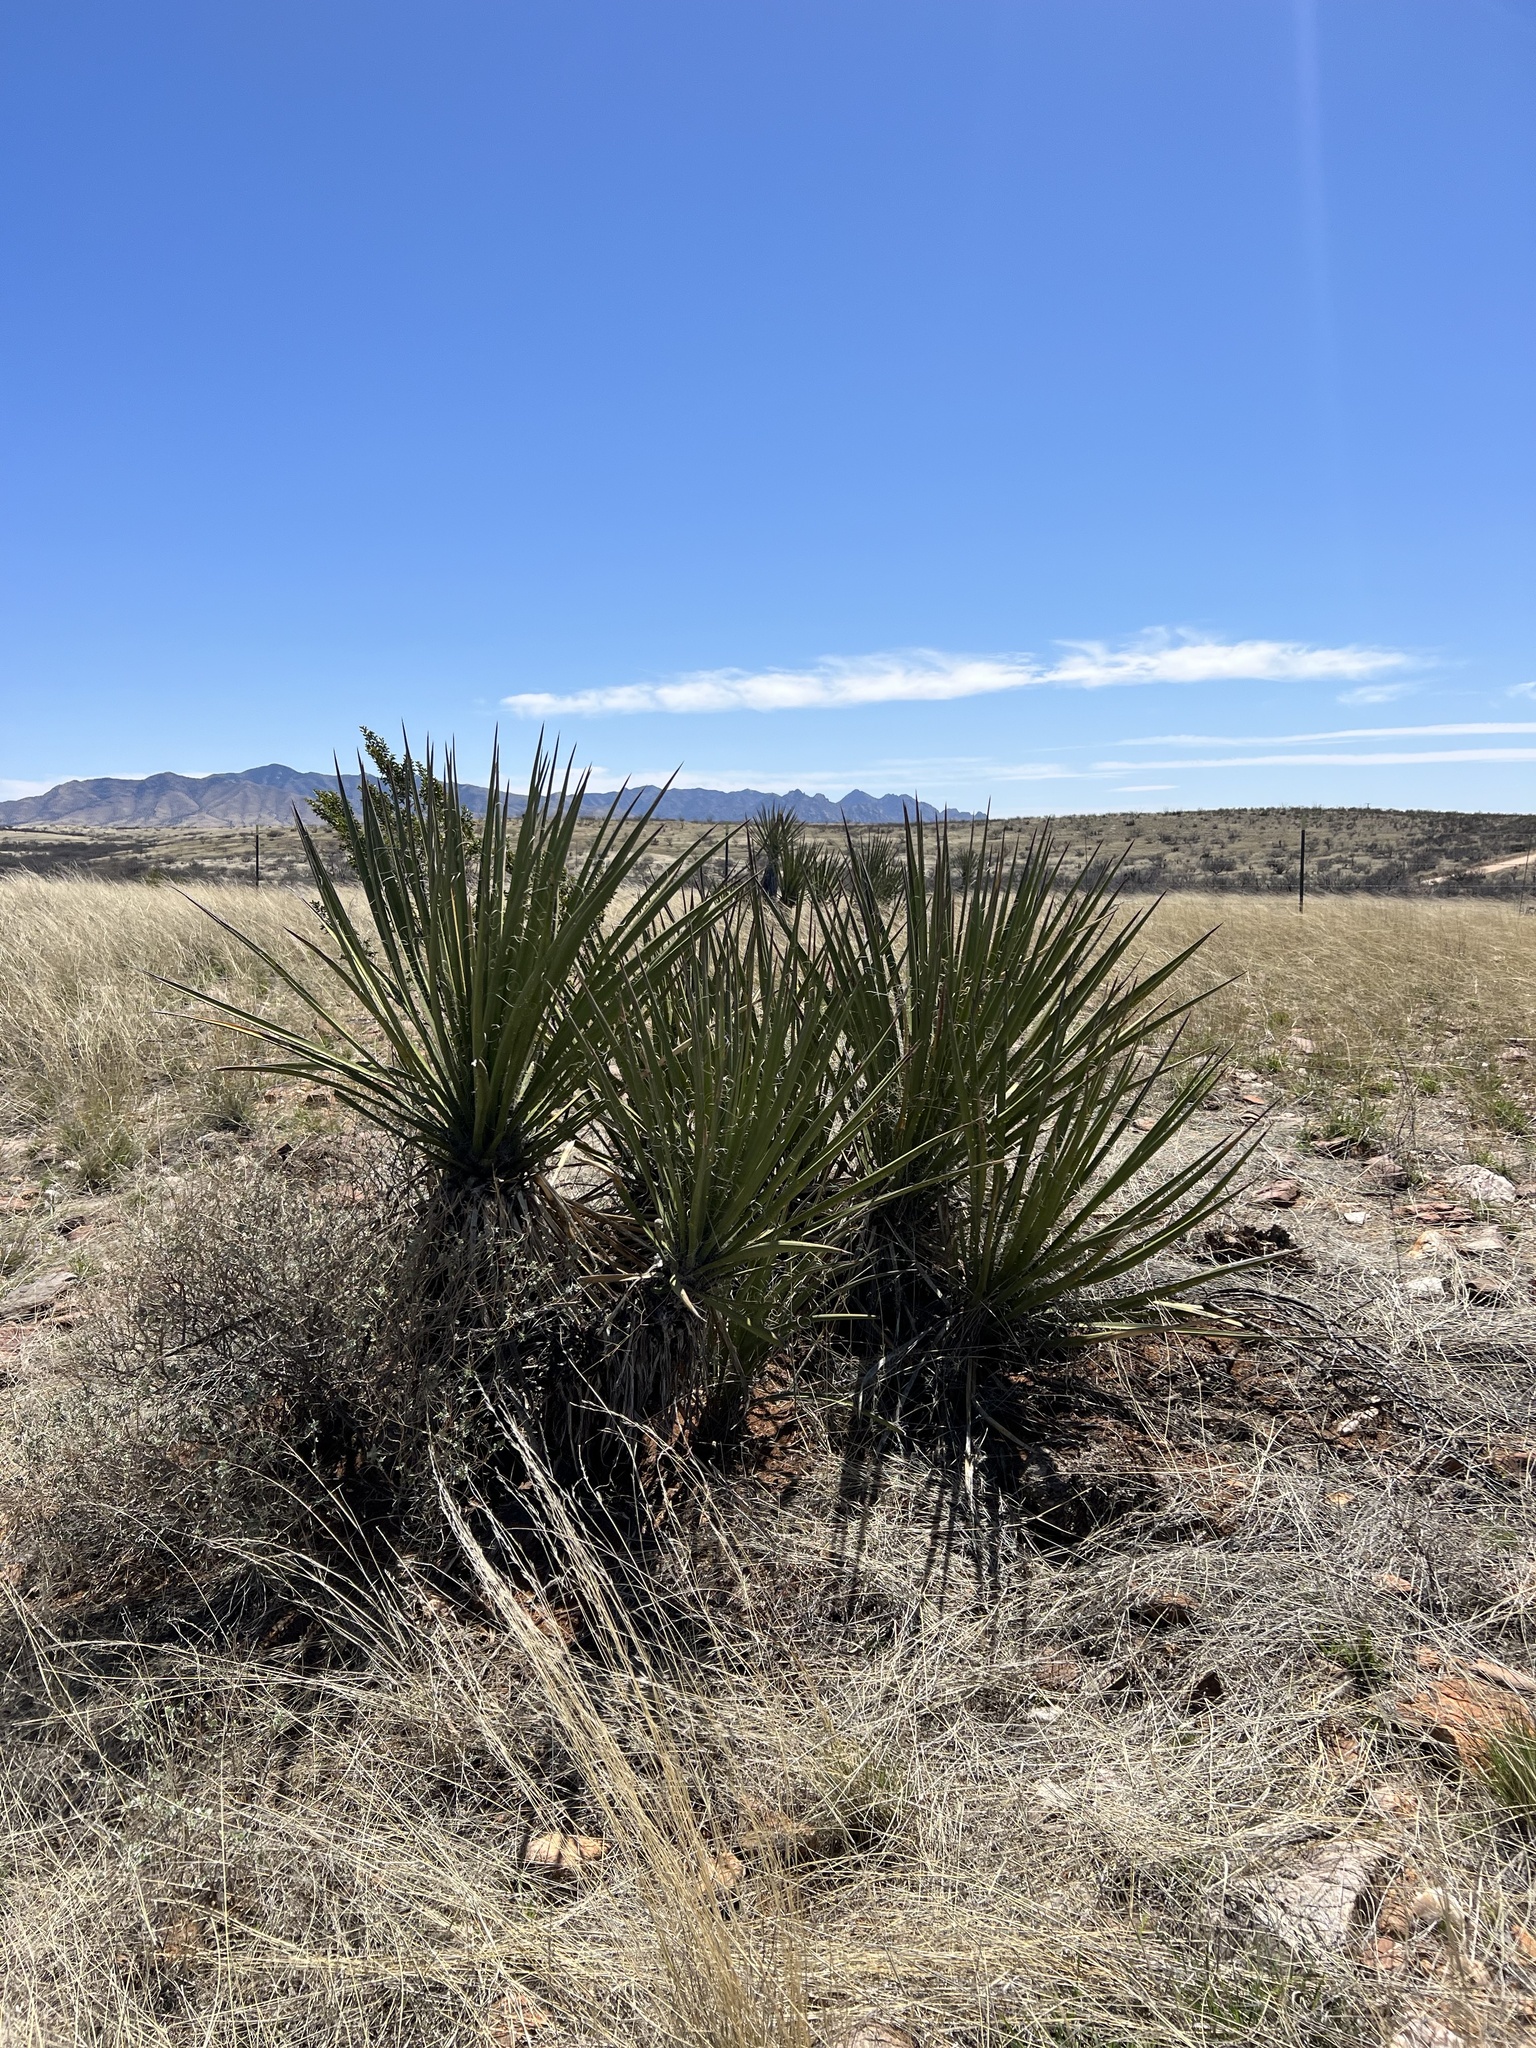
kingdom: Plantae
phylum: Tracheophyta
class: Liliopsida
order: Asparagales
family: Asparagaceae
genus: Yucca
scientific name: Yucca baccata
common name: Banana yucca
